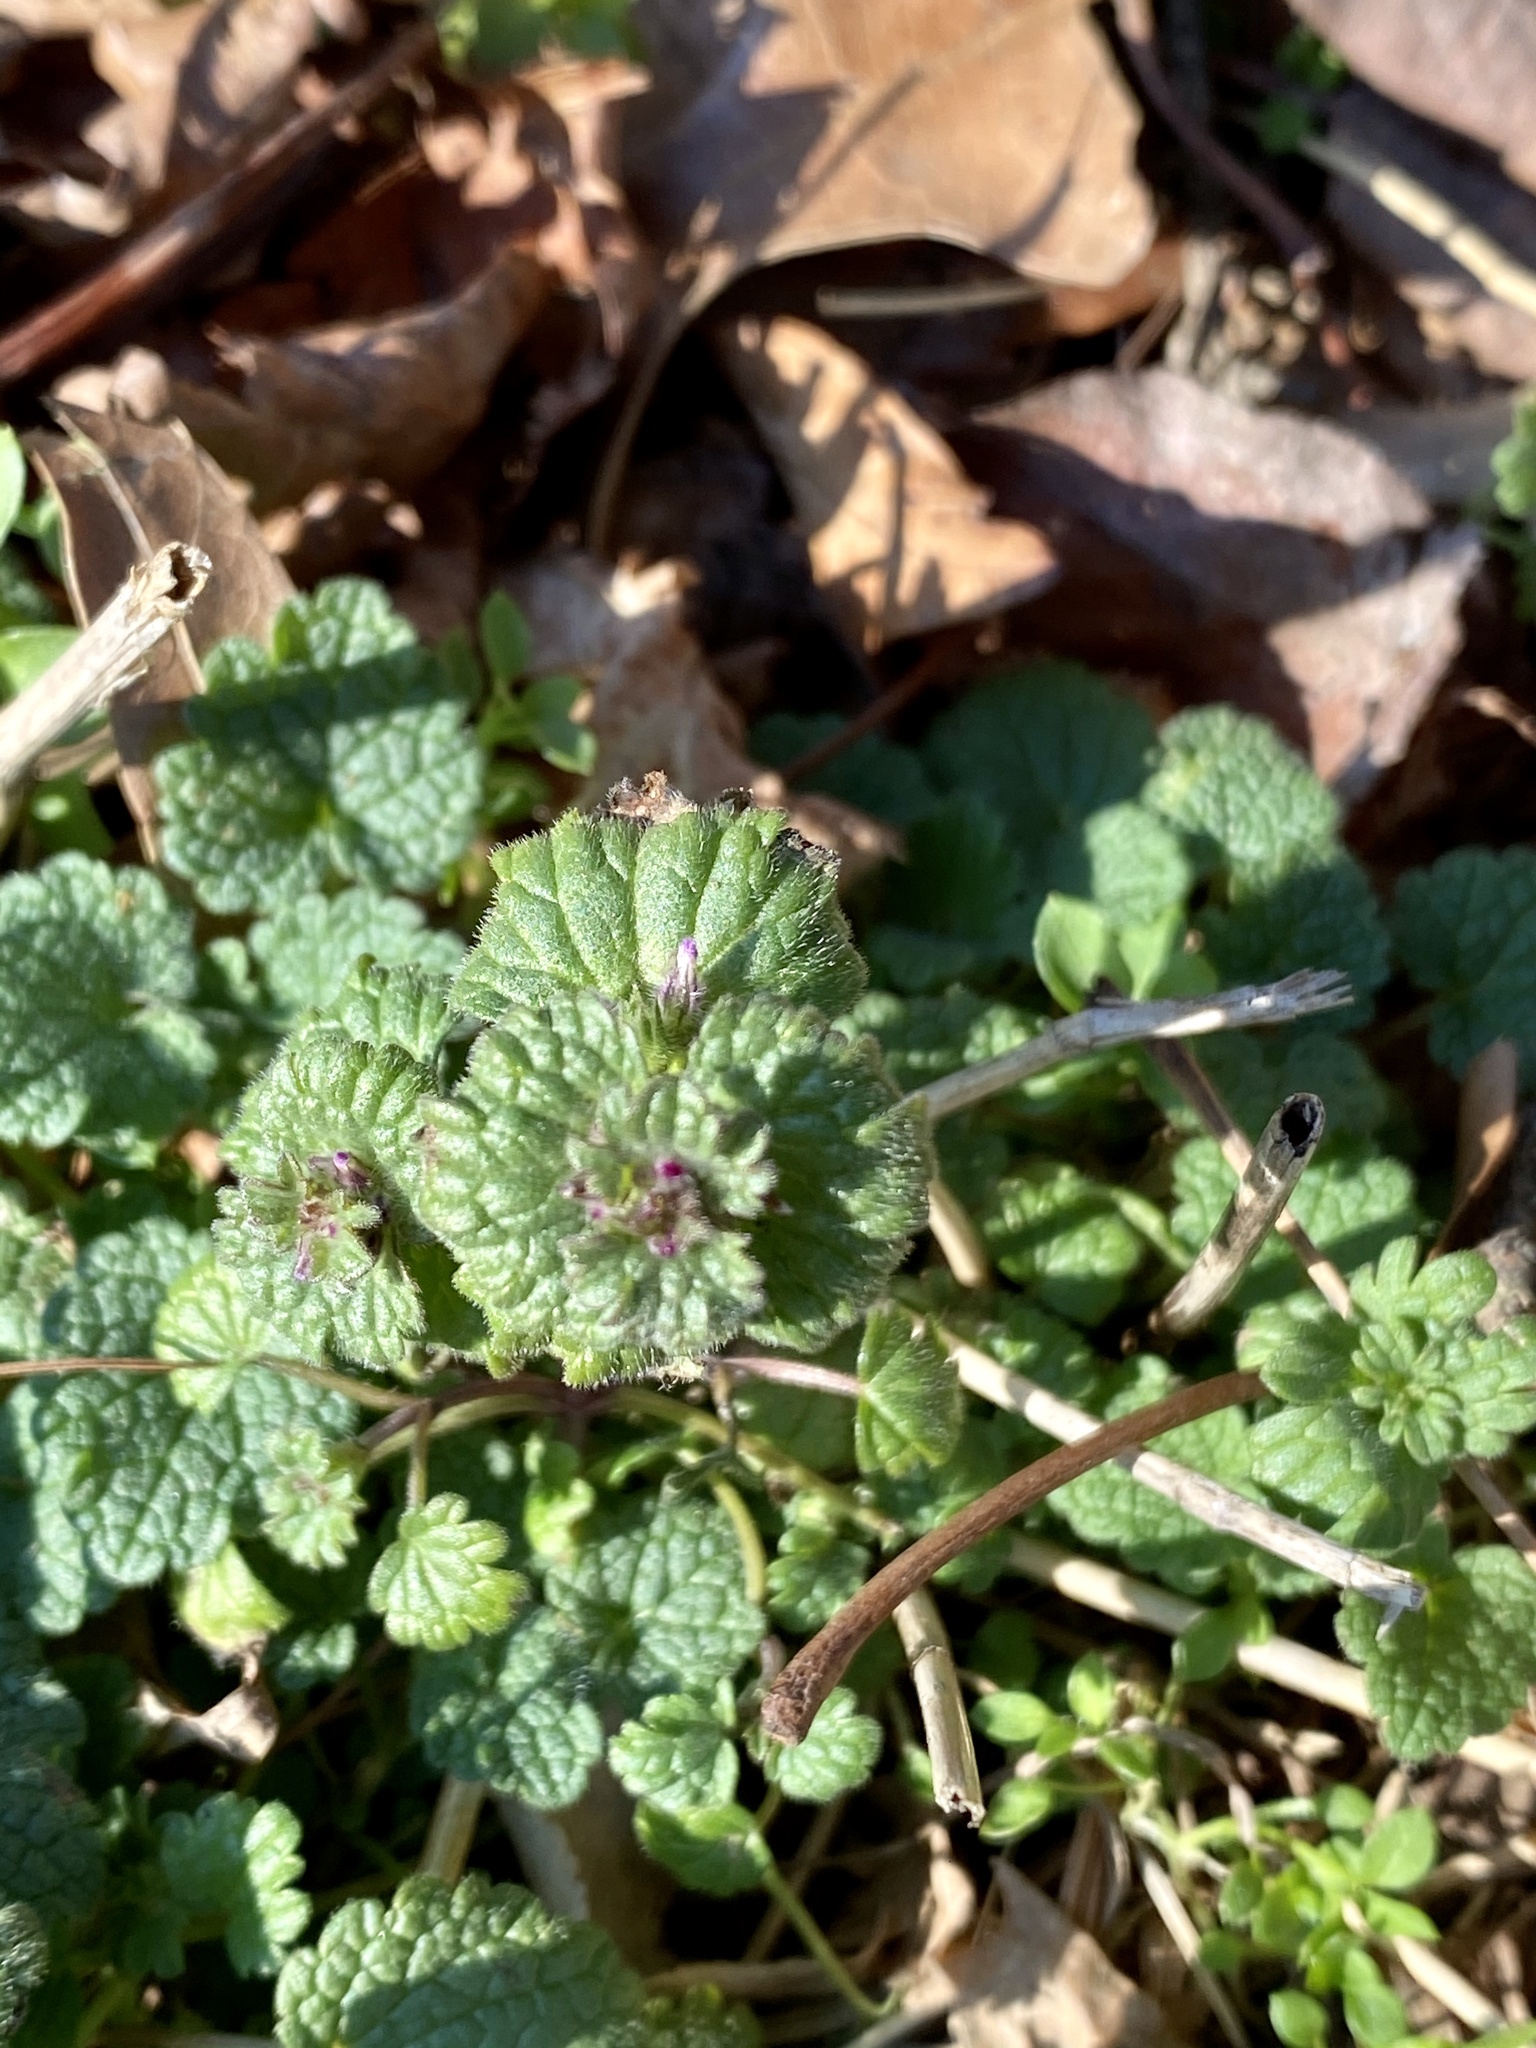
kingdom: Plantae
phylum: Tracheophyta
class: Magnoliopsida
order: Lamiales
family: Lamiaceae
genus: Lamium
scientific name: Lamium amplexicaule
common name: Henbit dead-nettle
